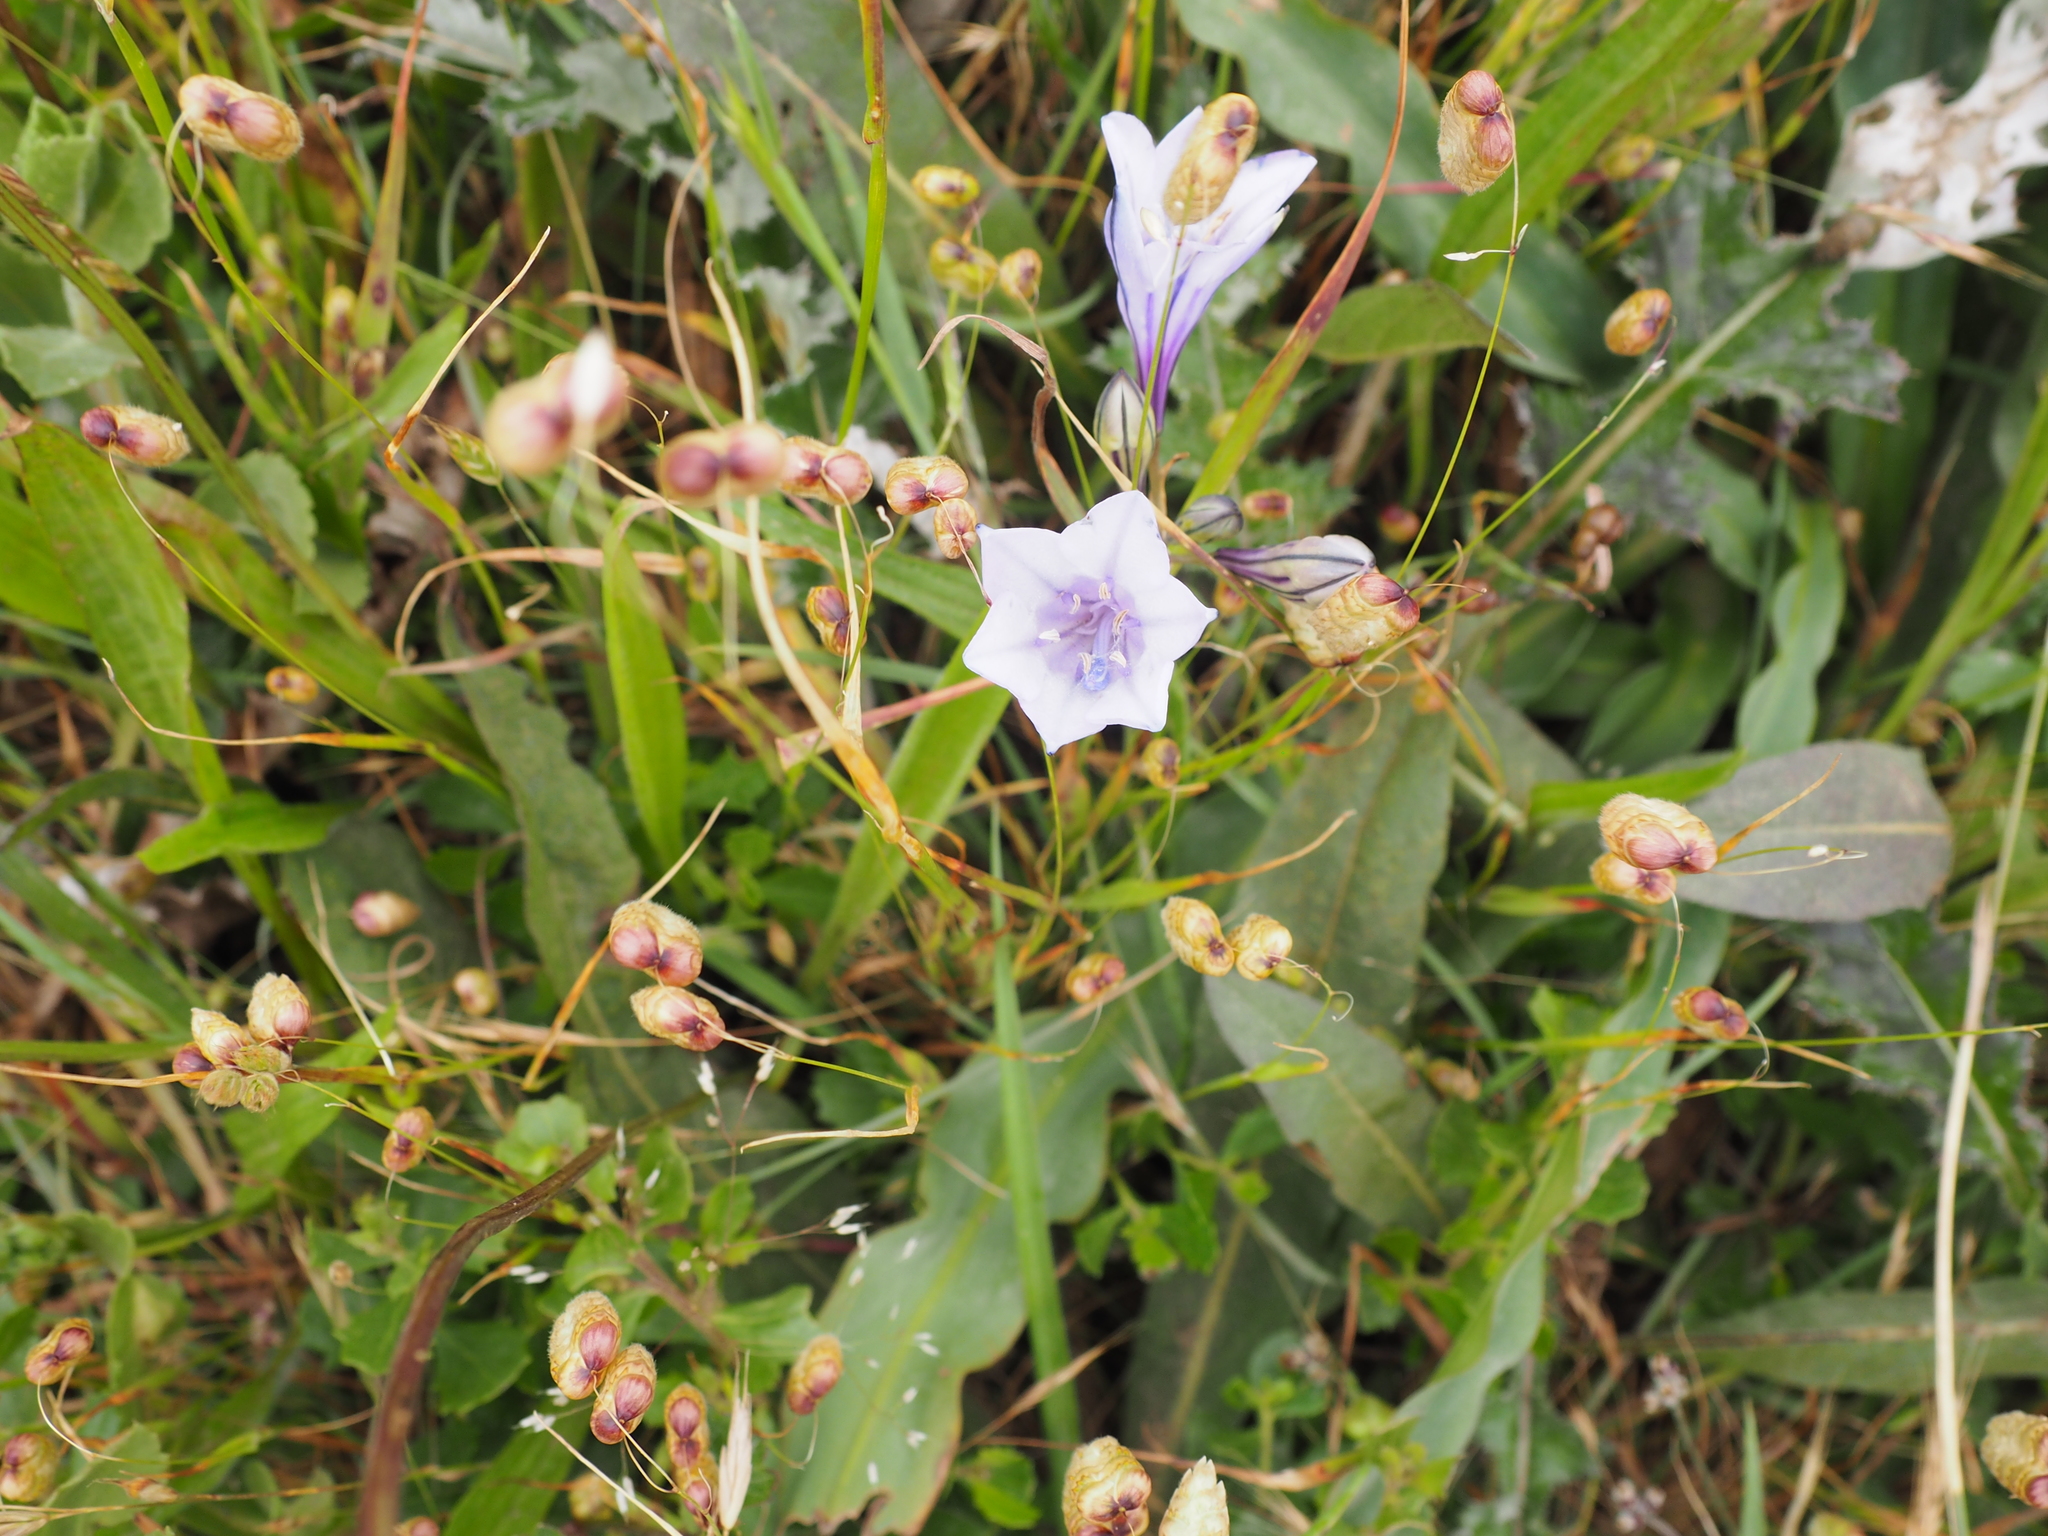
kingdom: Plantae
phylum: Tracheophyta
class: Liliopsida
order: Asparagales
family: Asparagaceae
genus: Triteleia
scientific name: Triteleia laxa
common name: Triplet-lily
